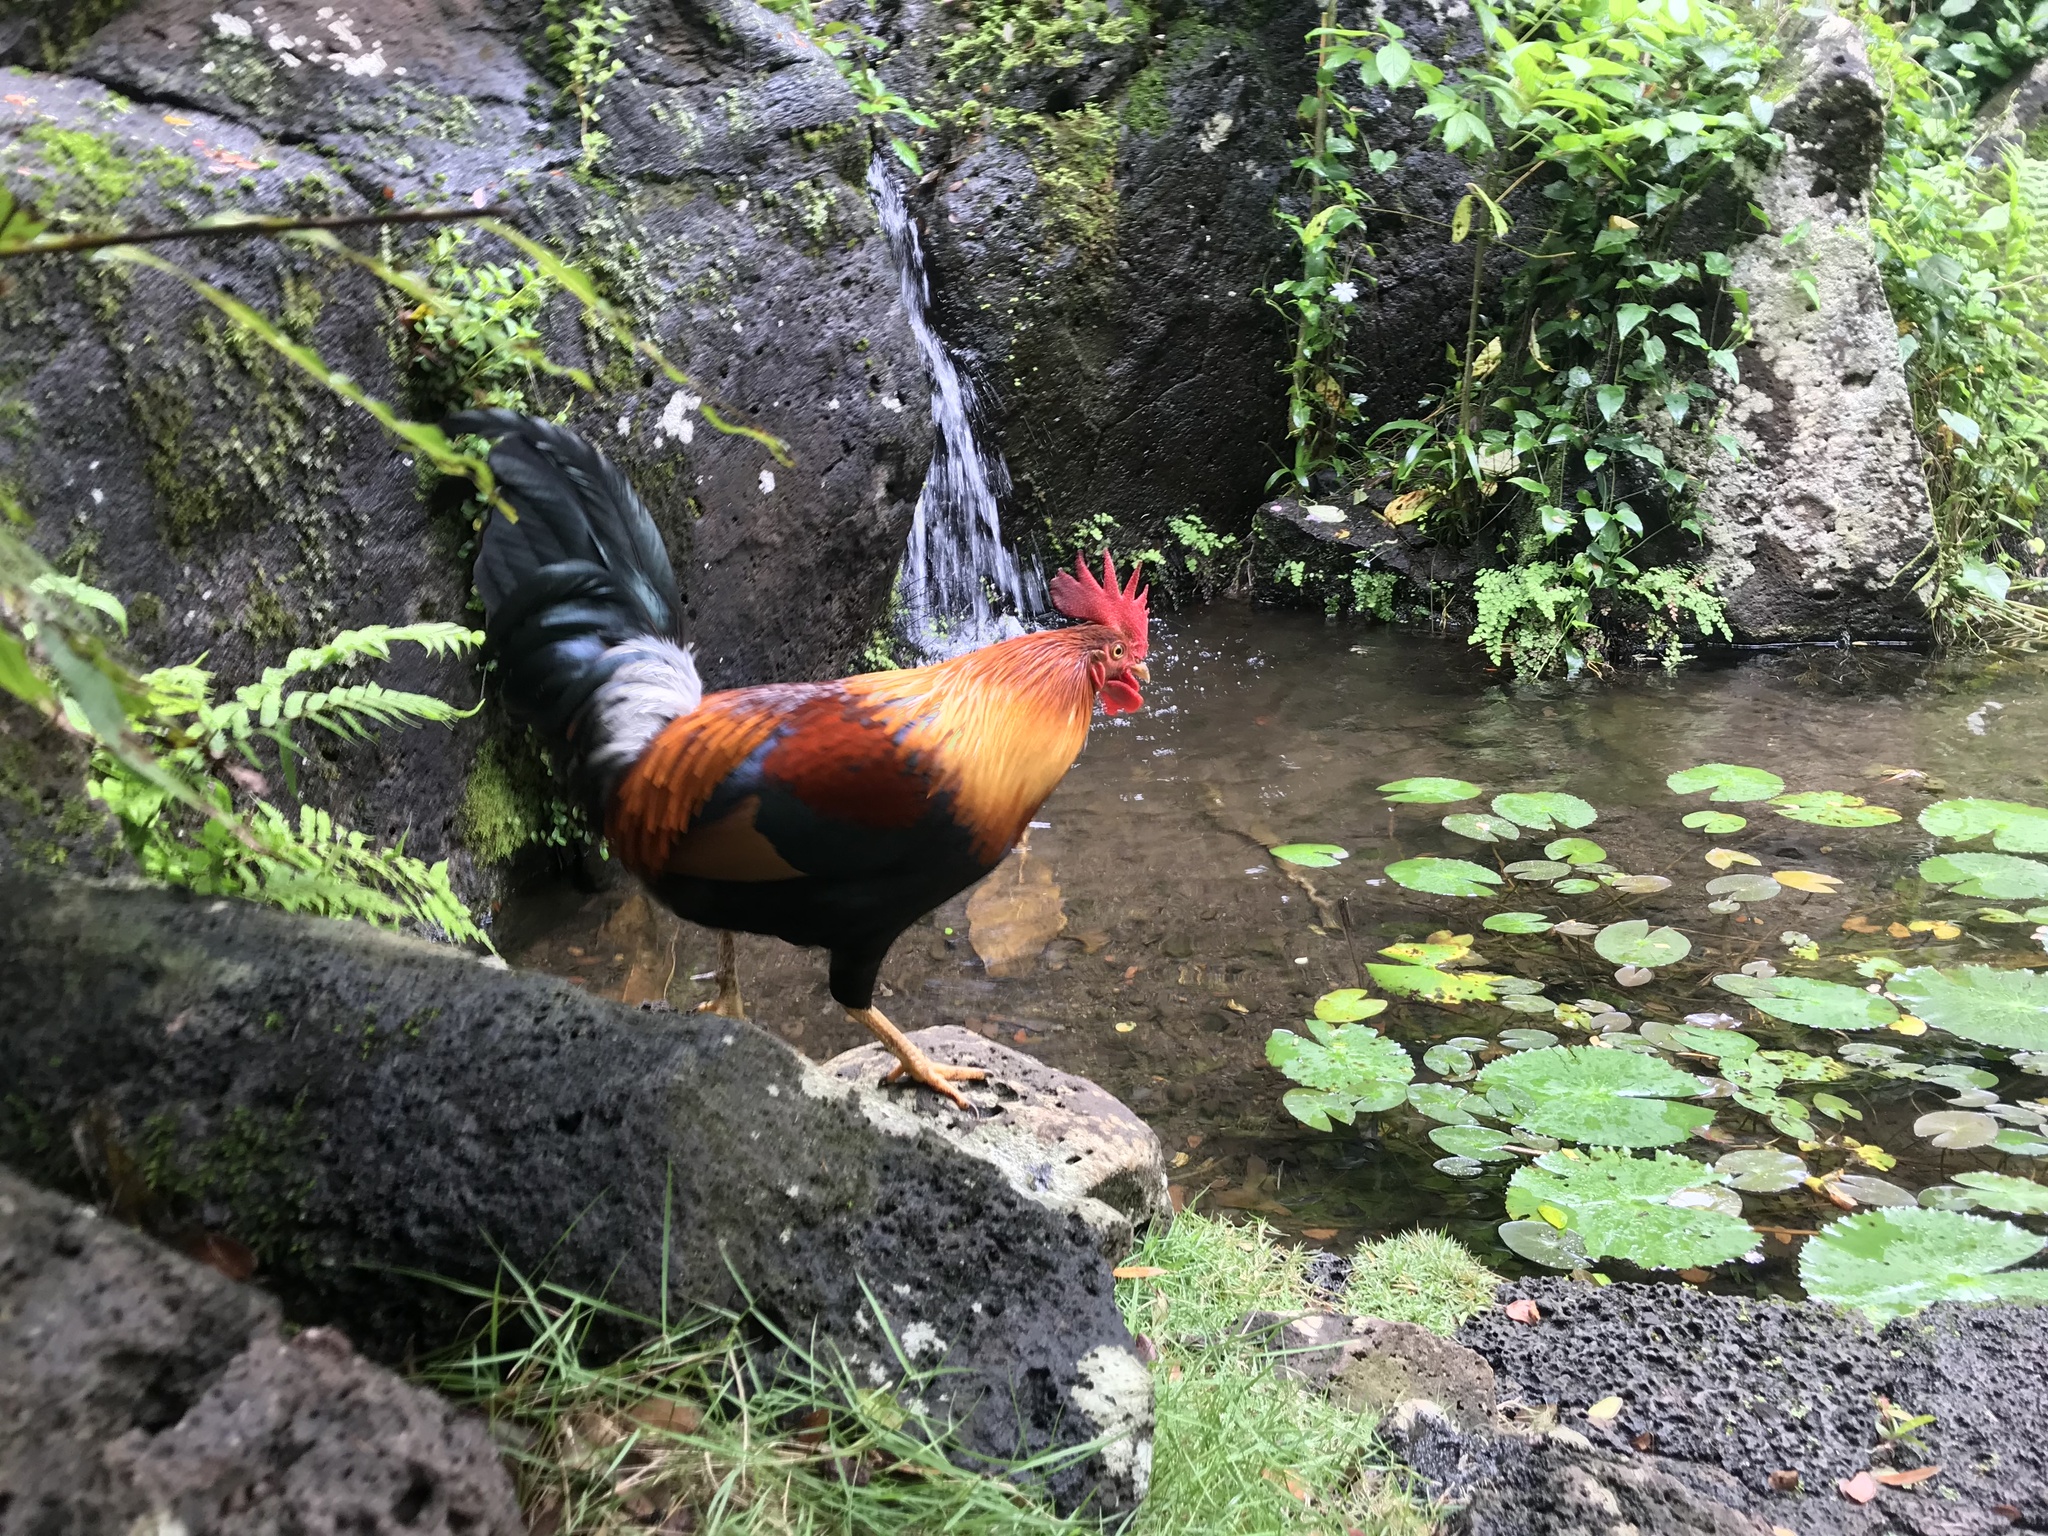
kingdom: Animalia
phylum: Chordata
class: Aves
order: Galliformes
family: Phasianidae
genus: Gallus
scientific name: Gallus gallus
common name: Red junglefowl
